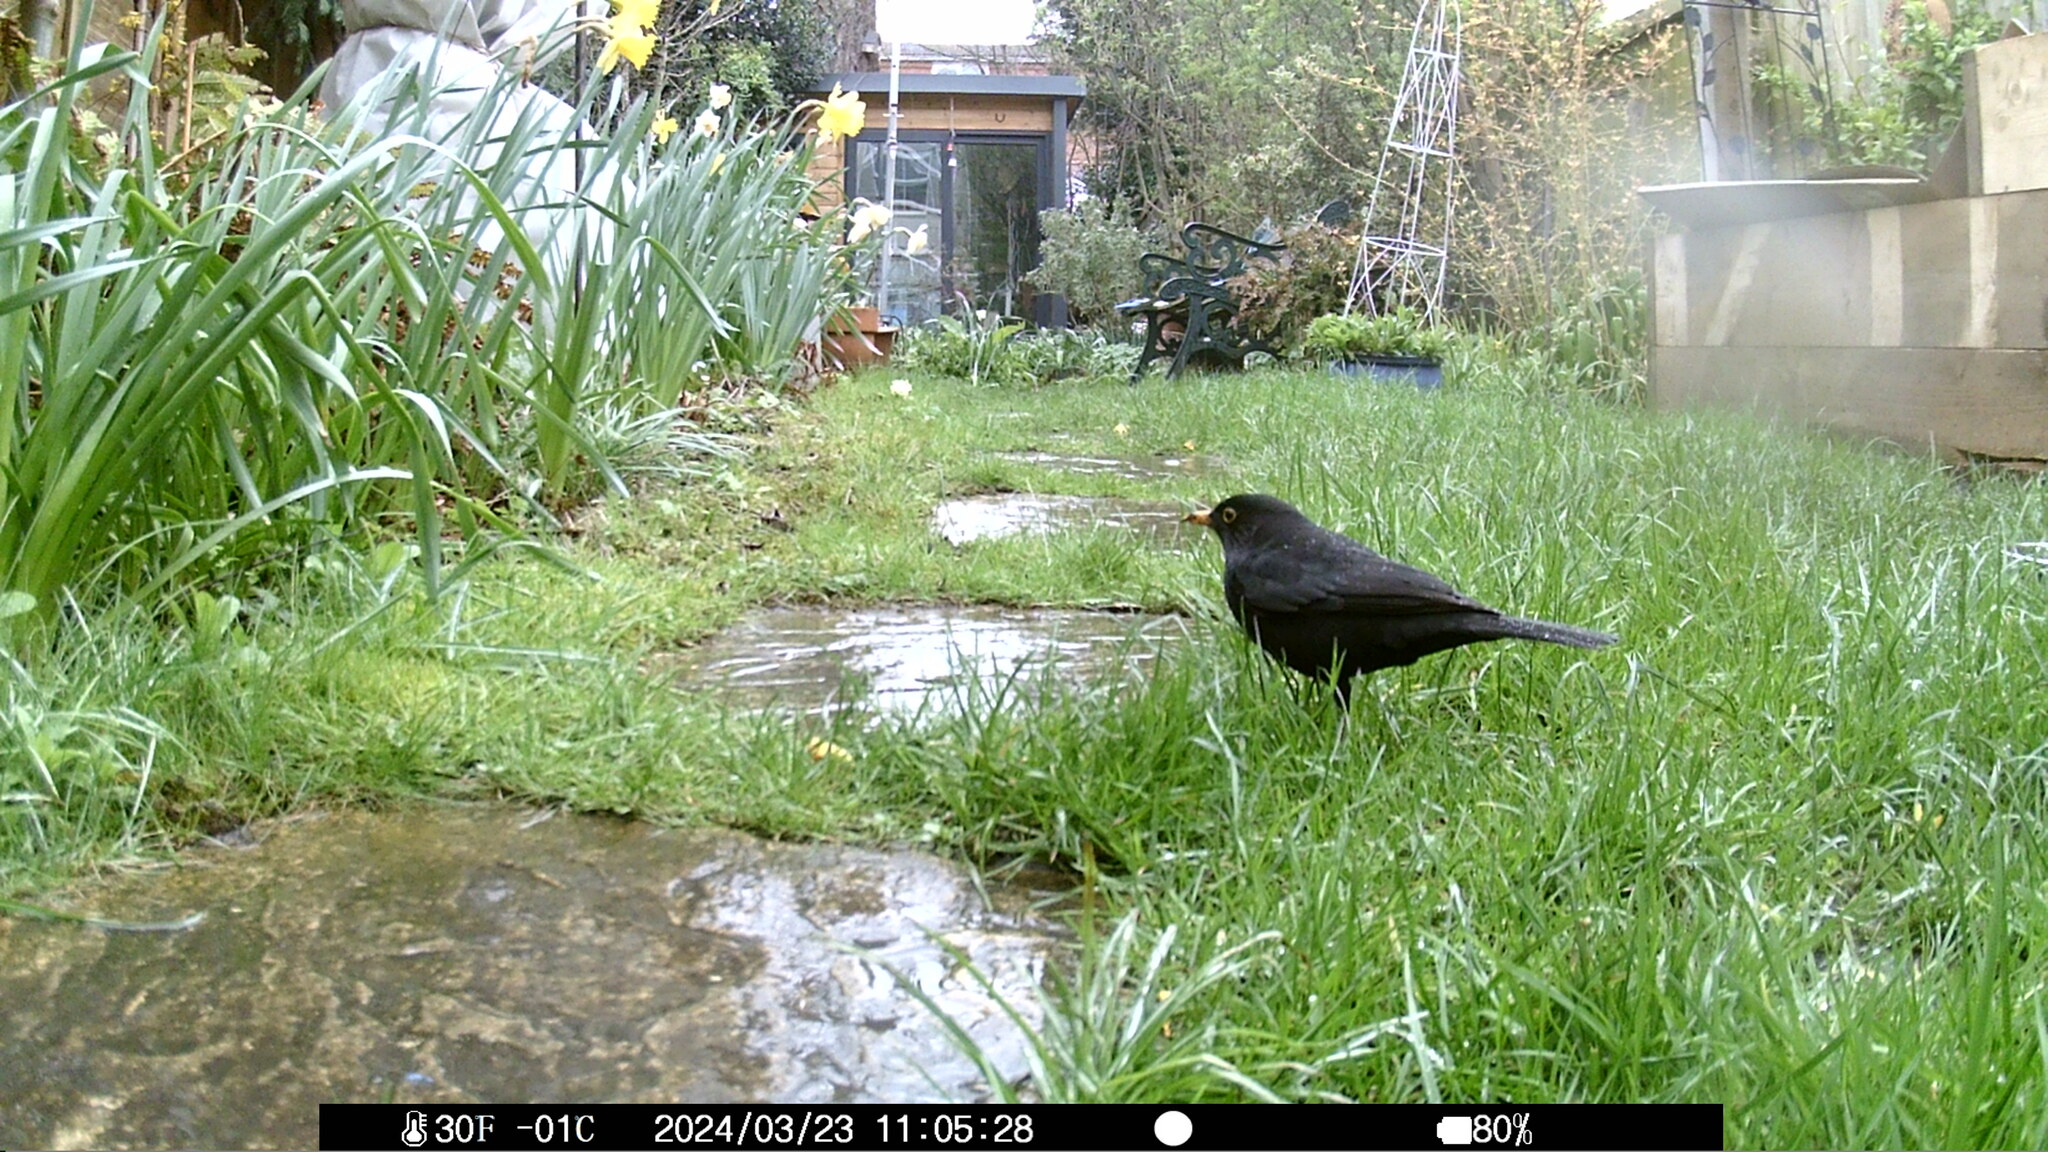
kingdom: Animalia
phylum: Chordata
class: Aves
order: Passeriformes
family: Turdidae
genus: Turdus
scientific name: Turdus merula
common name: Common blackbird
